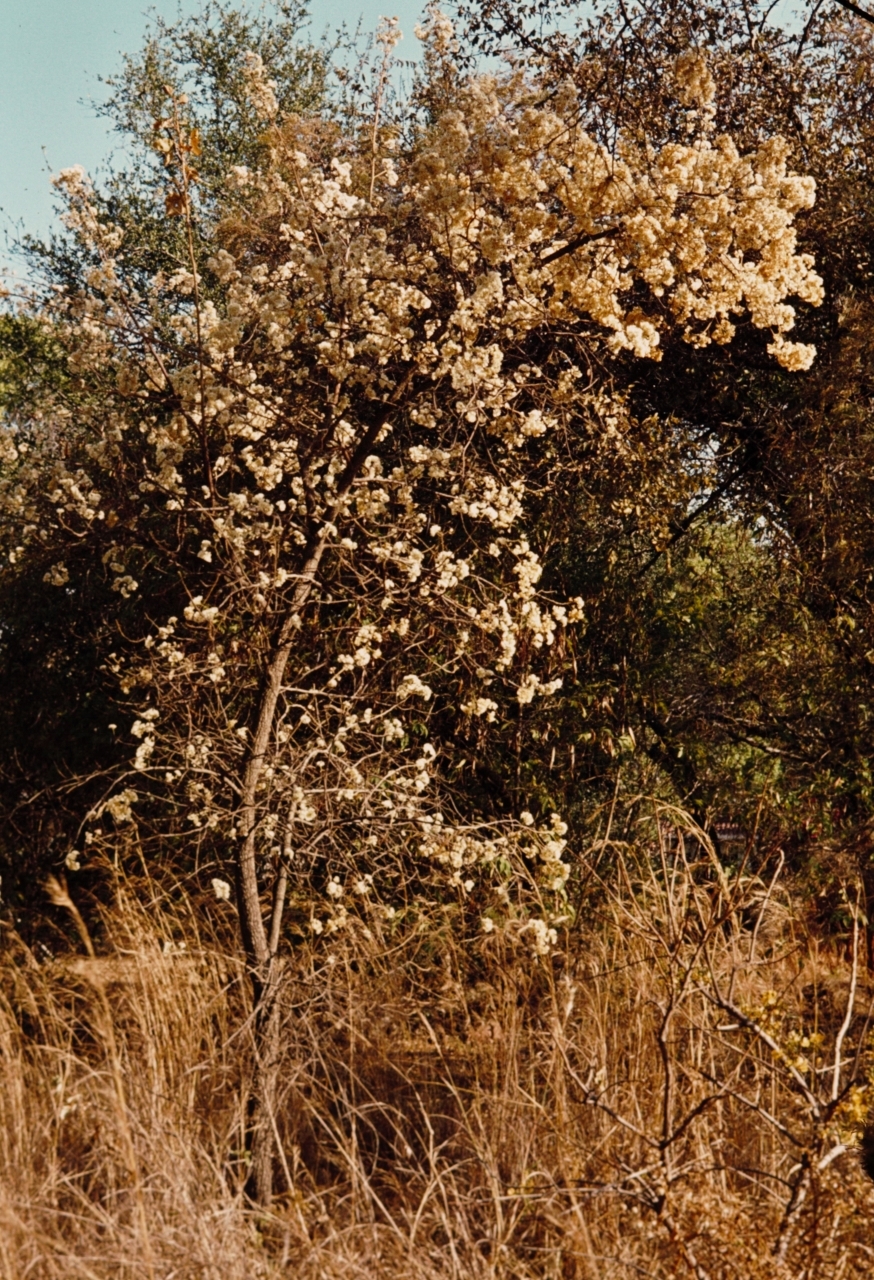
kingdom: Plantae
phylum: Tracheophyta
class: Magnoliopsida
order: Malvales
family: Malvaceae
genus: Dombeya
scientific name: Dombeya rotundifolia
